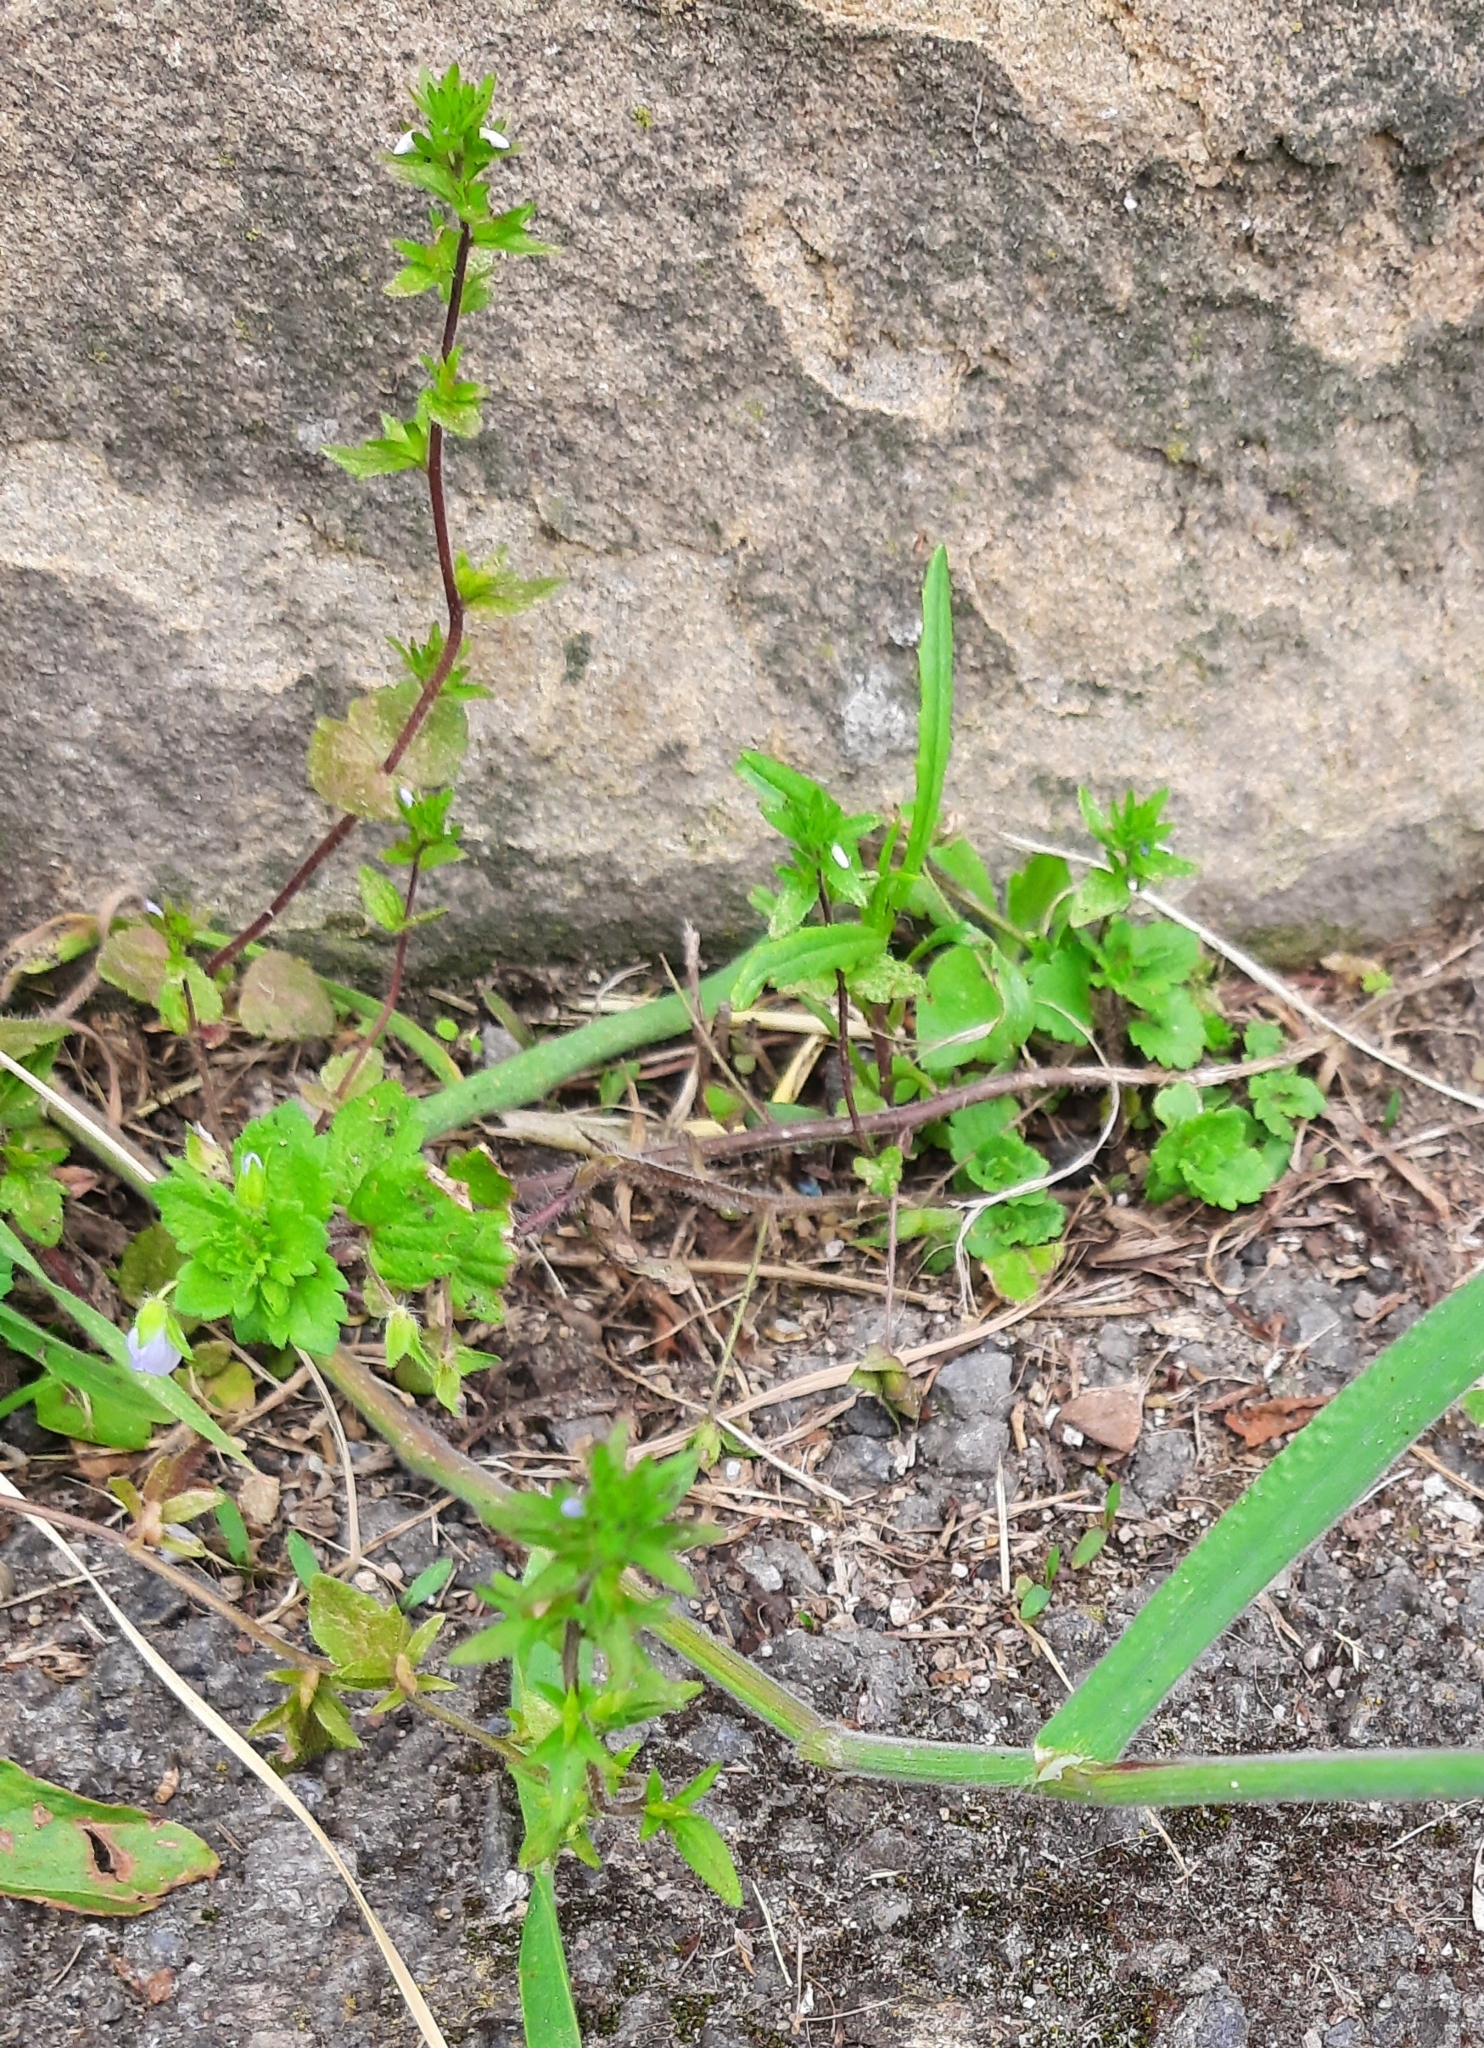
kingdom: Plantae
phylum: Tracheophyta
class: Magnoliopsida
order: Lamiales
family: Plantaginaceae
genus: Veronica
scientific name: Veronica persica
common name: Common field-speedwell
